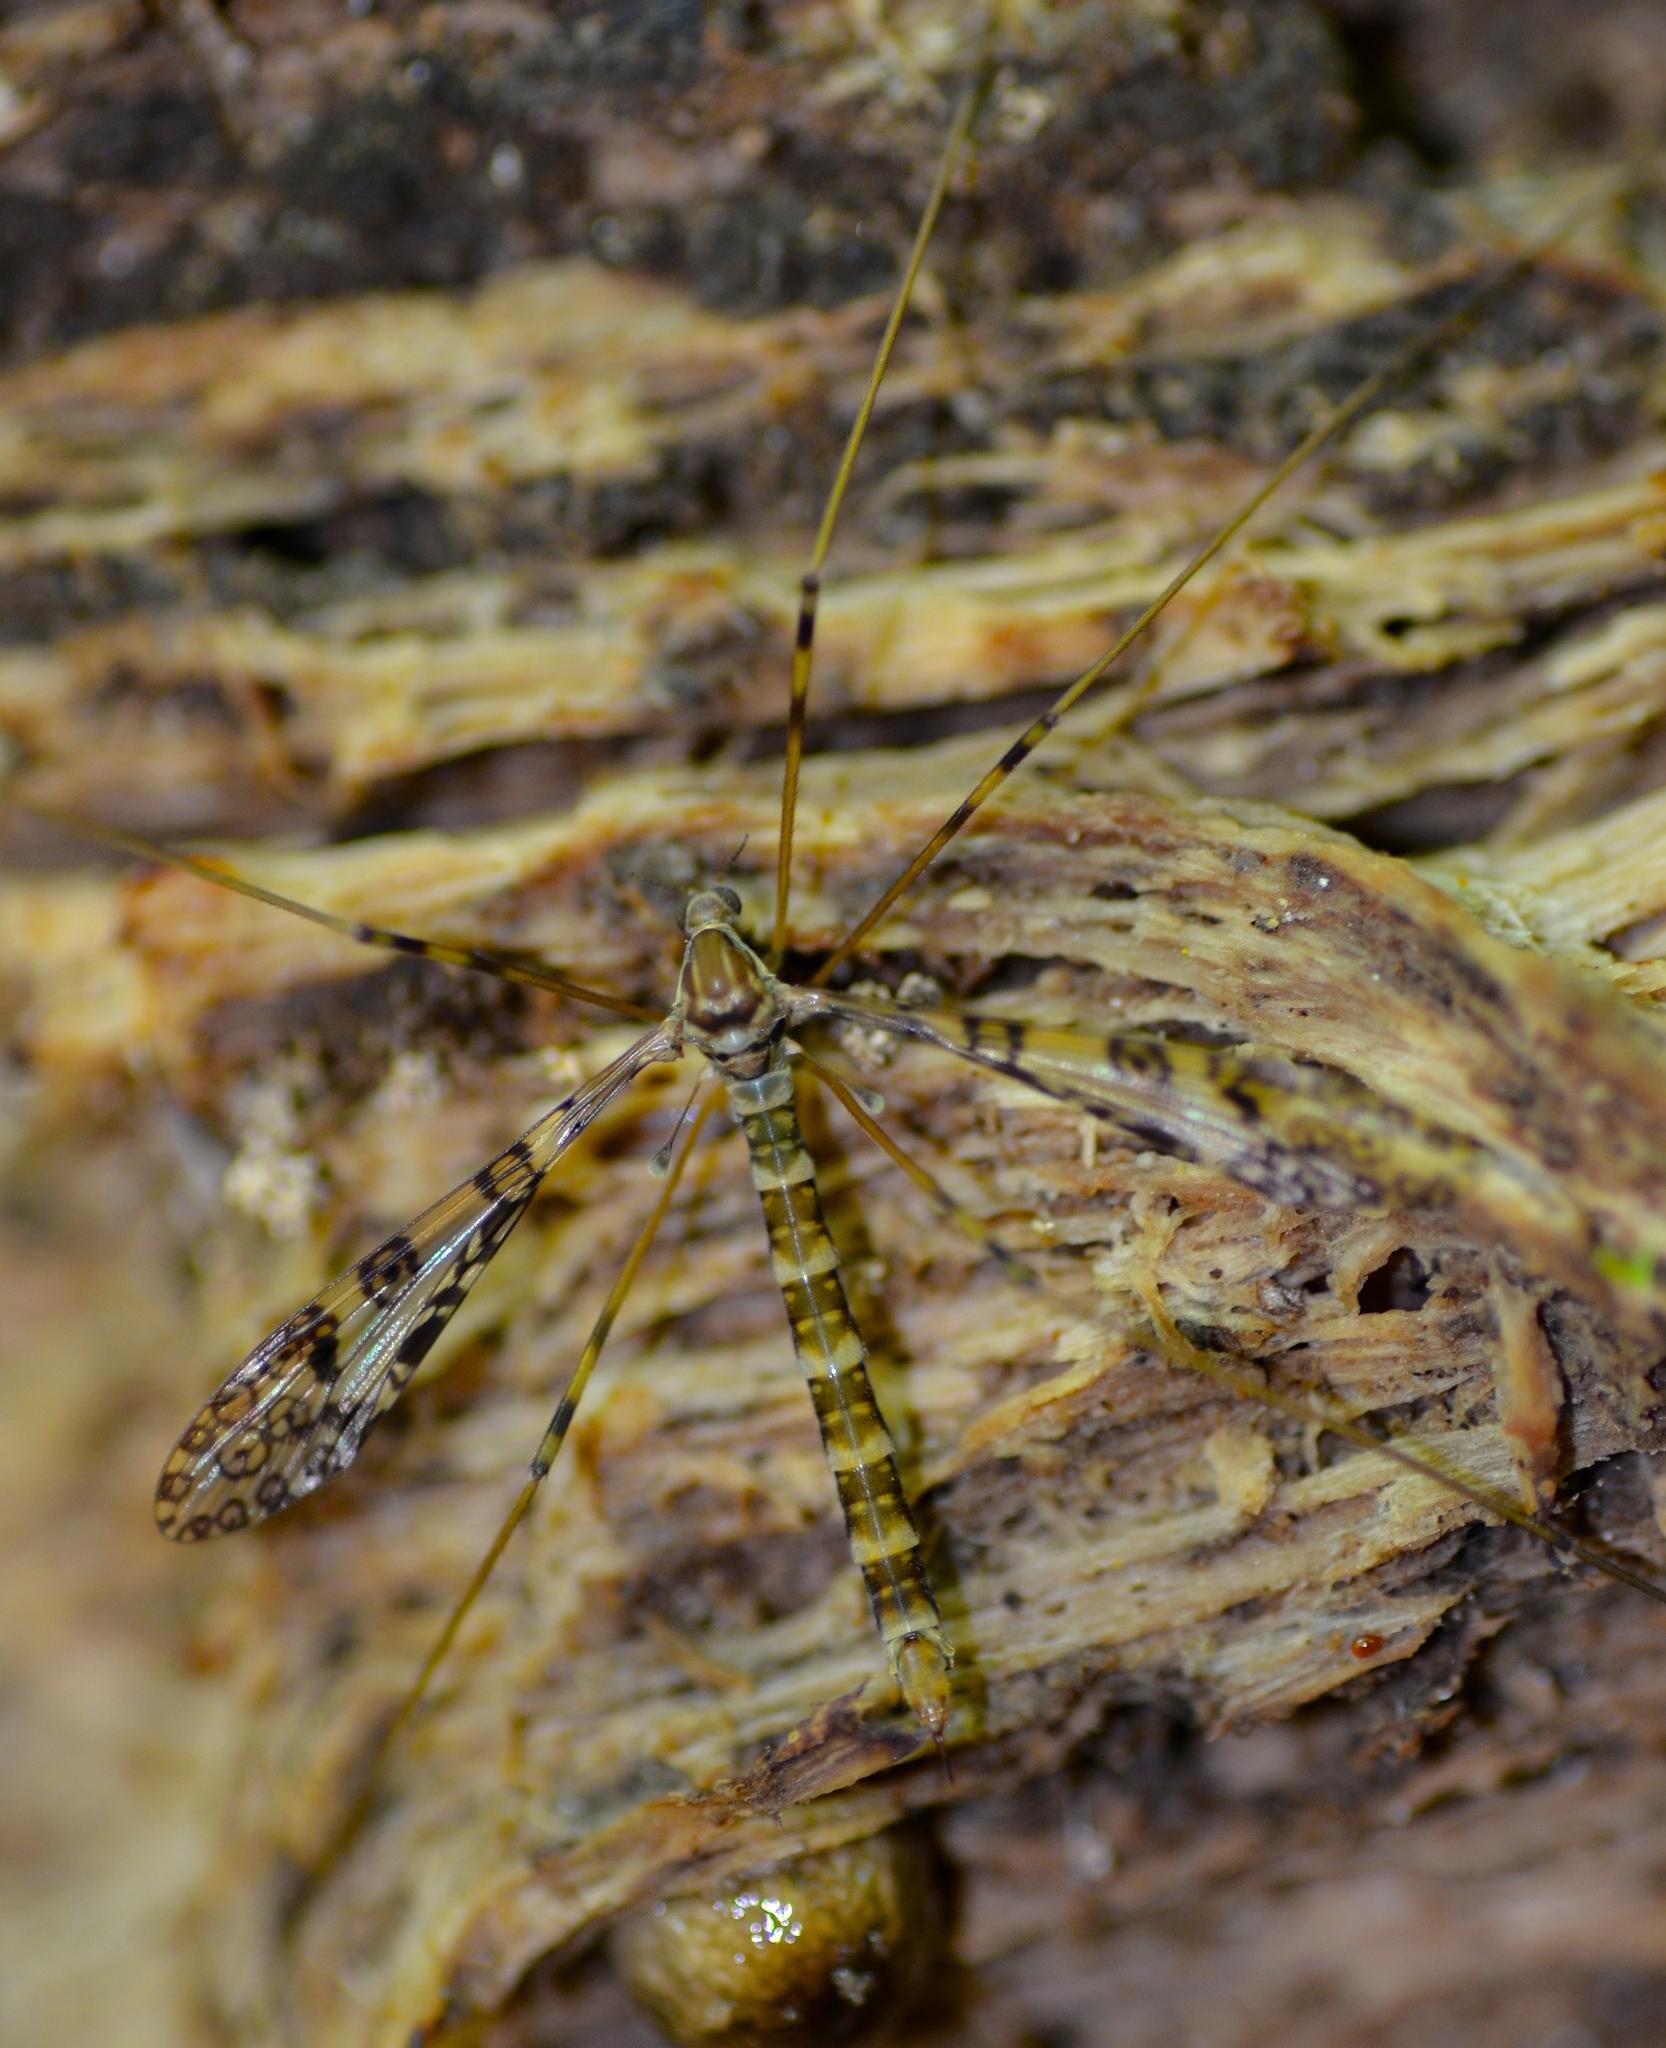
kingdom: Animalia
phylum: Arthropoda
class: Insecta
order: Diptera
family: Limoniidae
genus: Austrolimnophila
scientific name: Austrolimnophila argus
